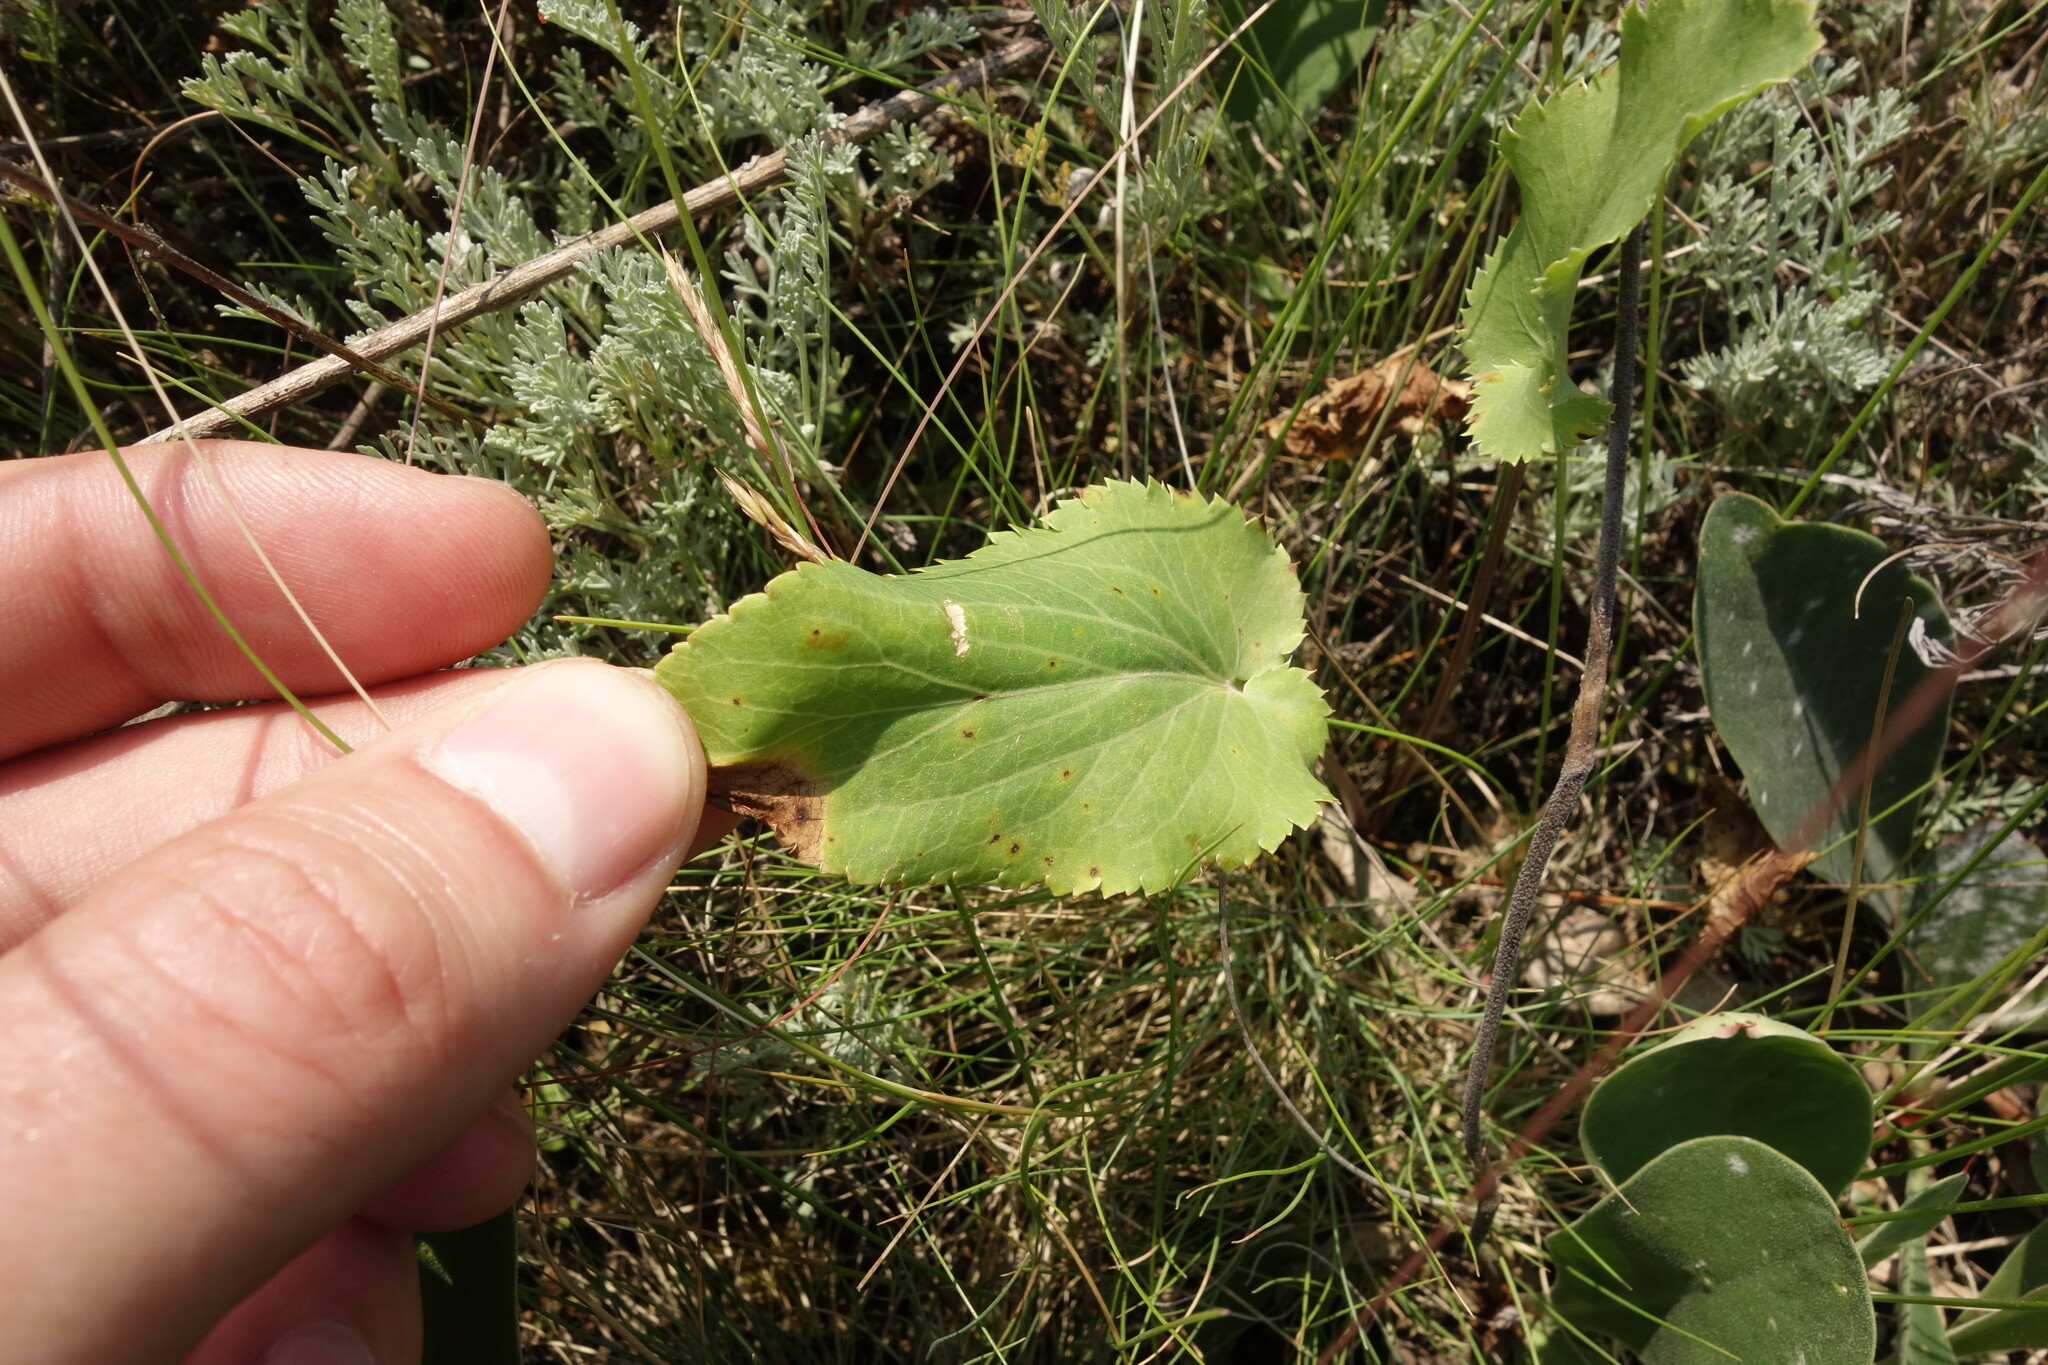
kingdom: Plantae
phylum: Tracheophyta
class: Magnoliopsida
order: Apiales
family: Apiaceae
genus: Eryngium
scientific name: Eryngium planum
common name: Blue eryngo
